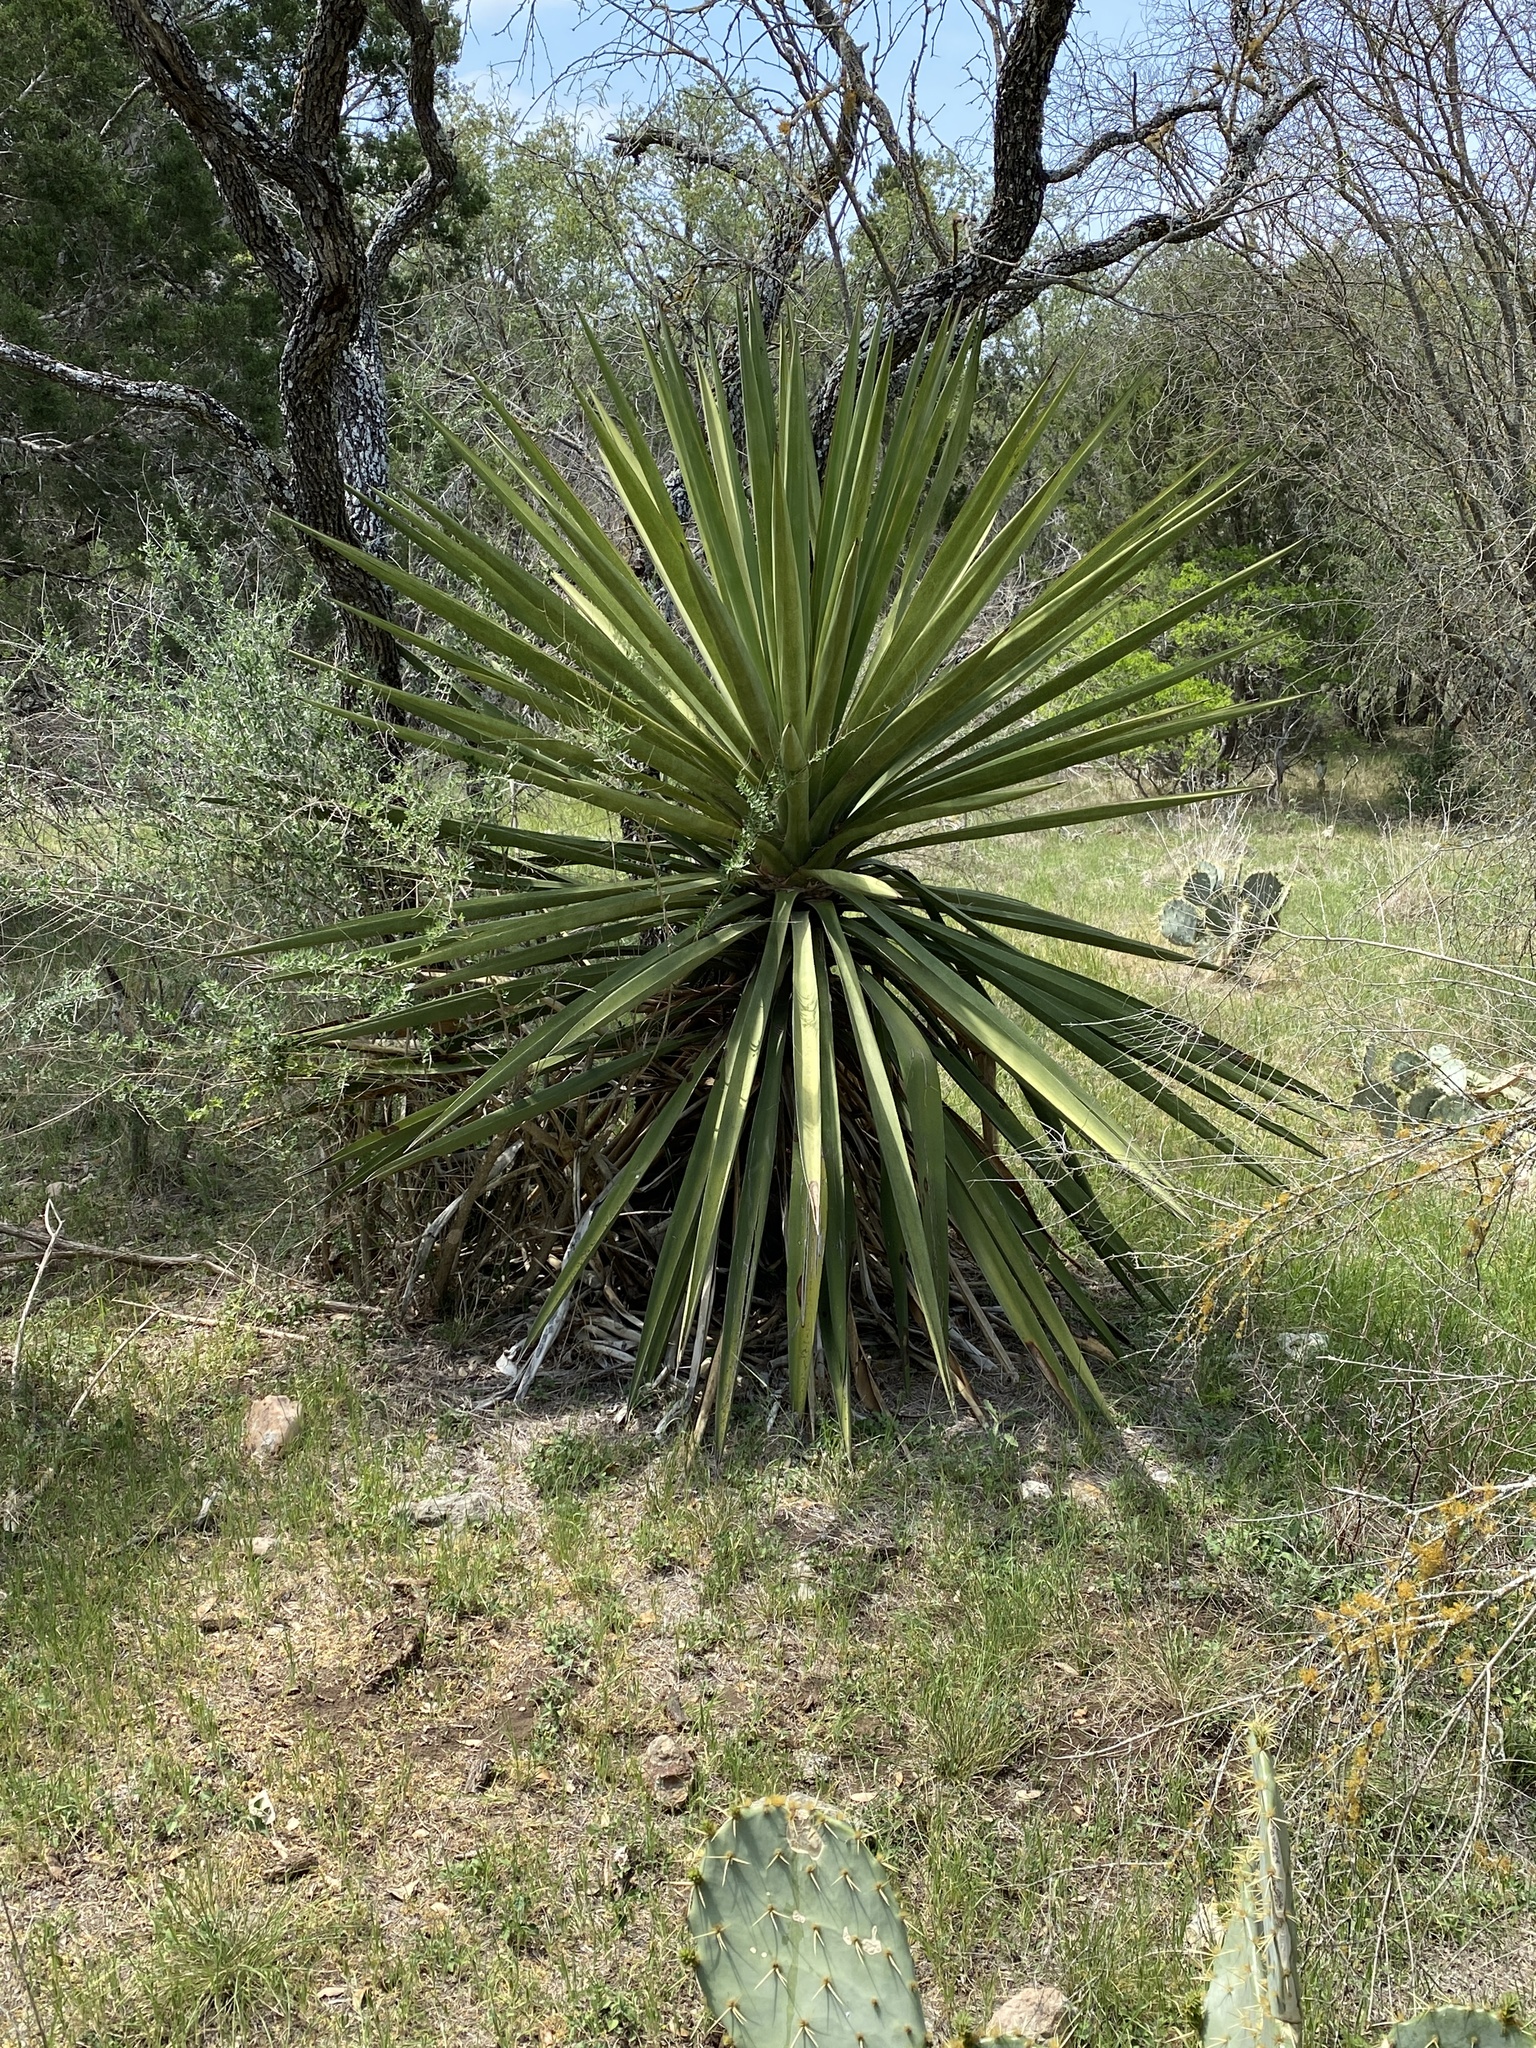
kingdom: Plantae
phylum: Tracheophyta
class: Liliopsida
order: Asparagales
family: Asparagaceae
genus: Yucca
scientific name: Yucca treculiana
